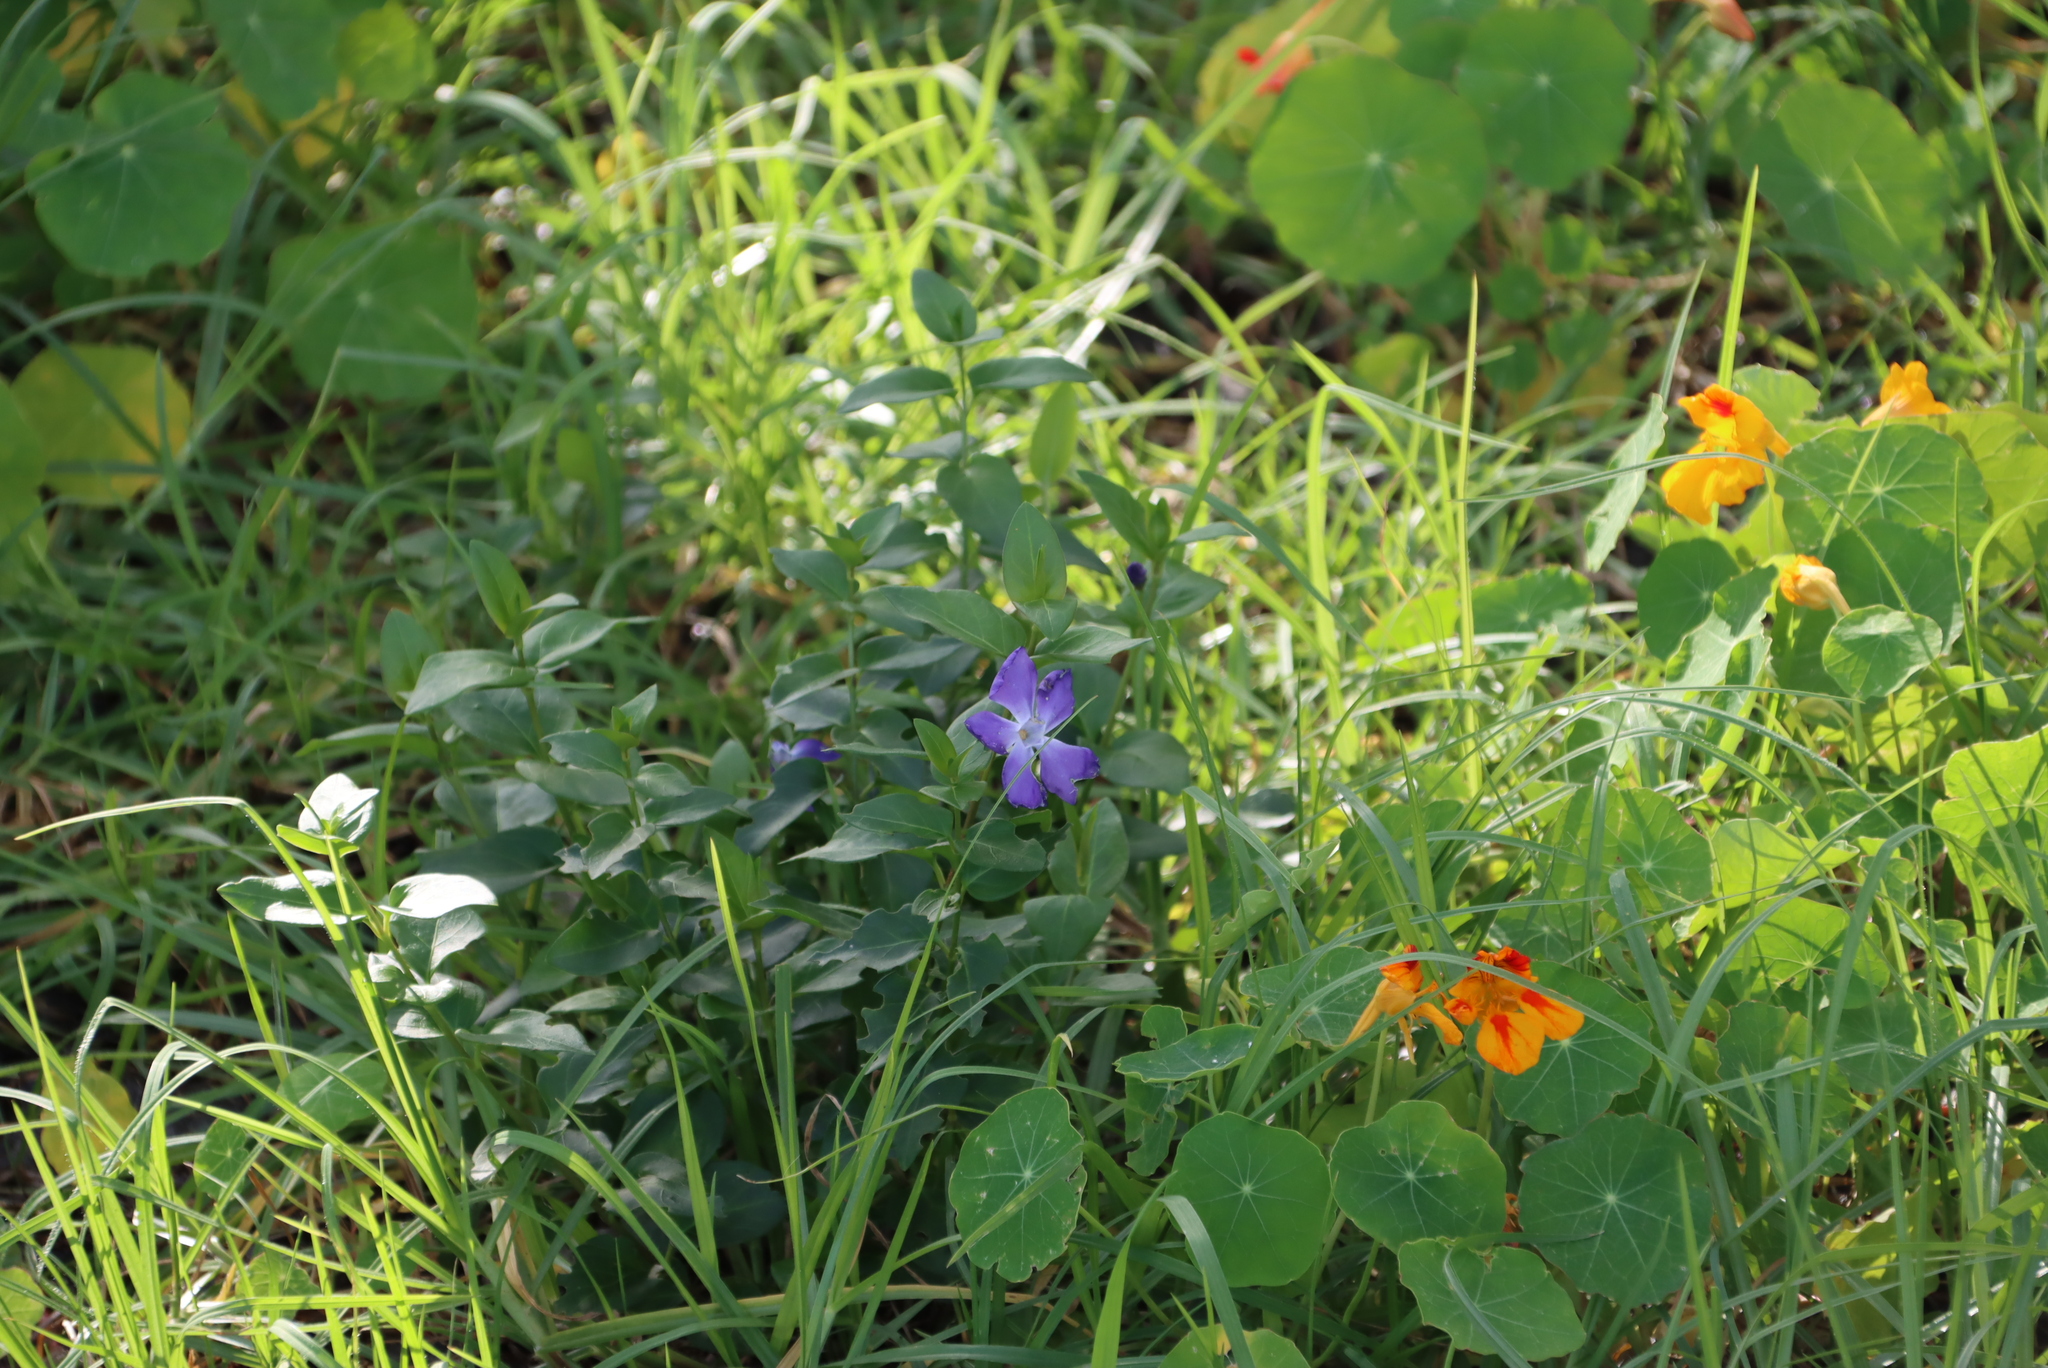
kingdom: Plantae
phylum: Tracheophyta
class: Magnoliopsida
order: Gentianales
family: Apocynaceae
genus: Vinca
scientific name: Vinca major
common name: Greater periwinkle
